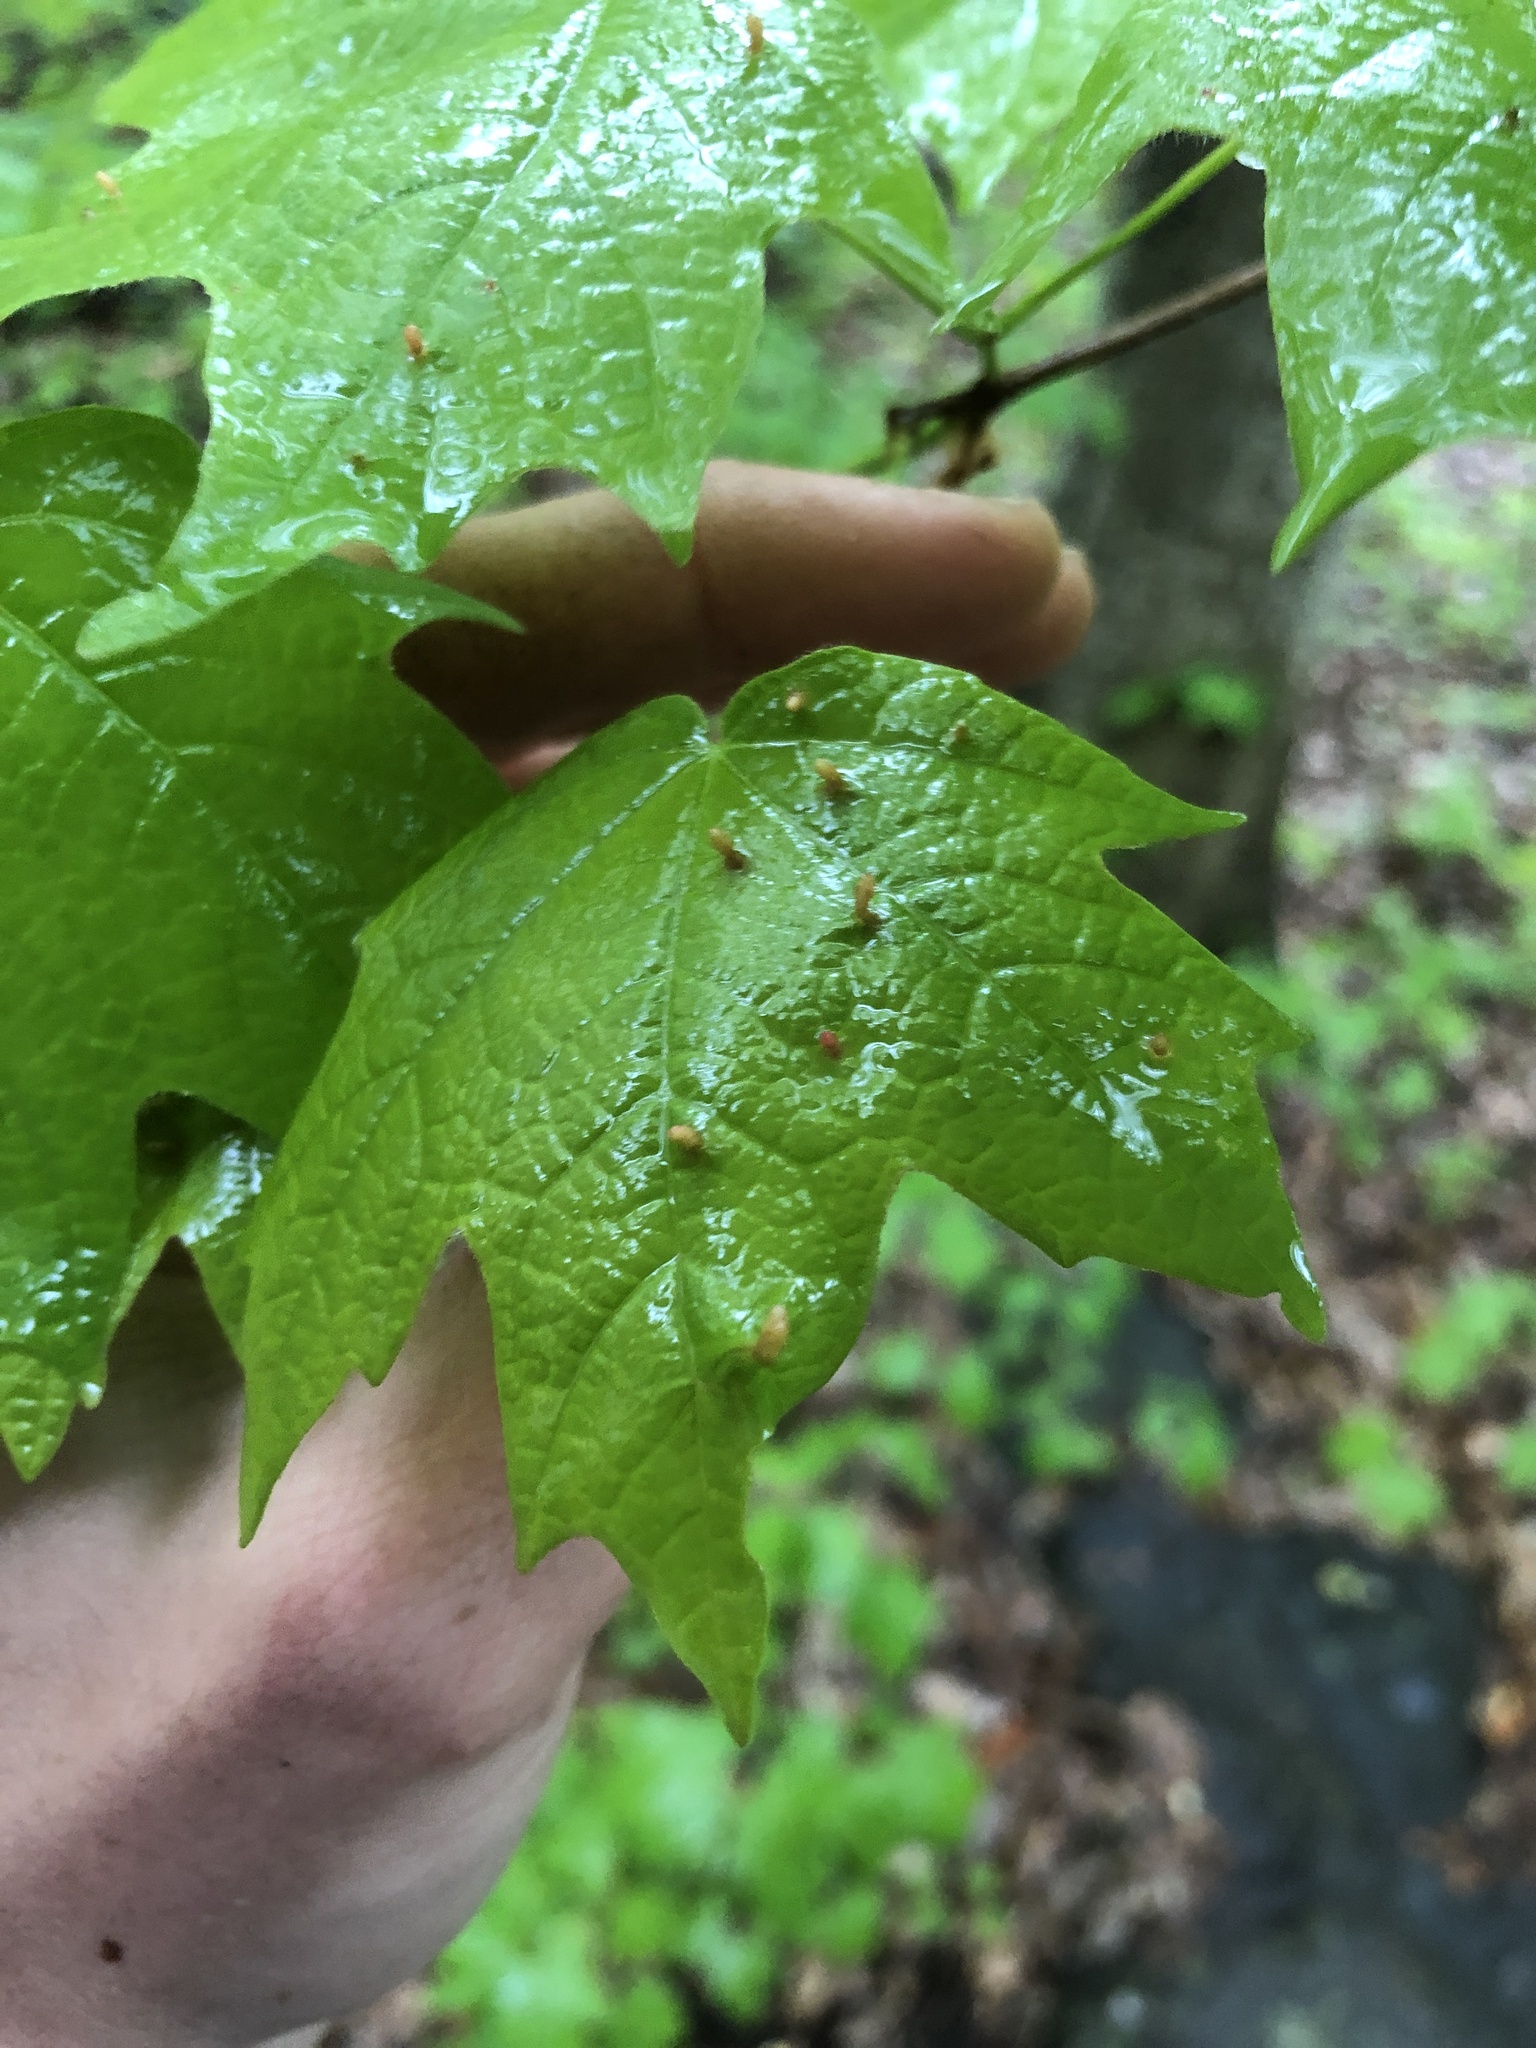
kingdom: Animalia
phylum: Arthropoda
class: Arachnida
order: Trombidiformes
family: Eriophyidae
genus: Vasates
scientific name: Vasates aceriscrumena
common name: Maple spindle gall mite
